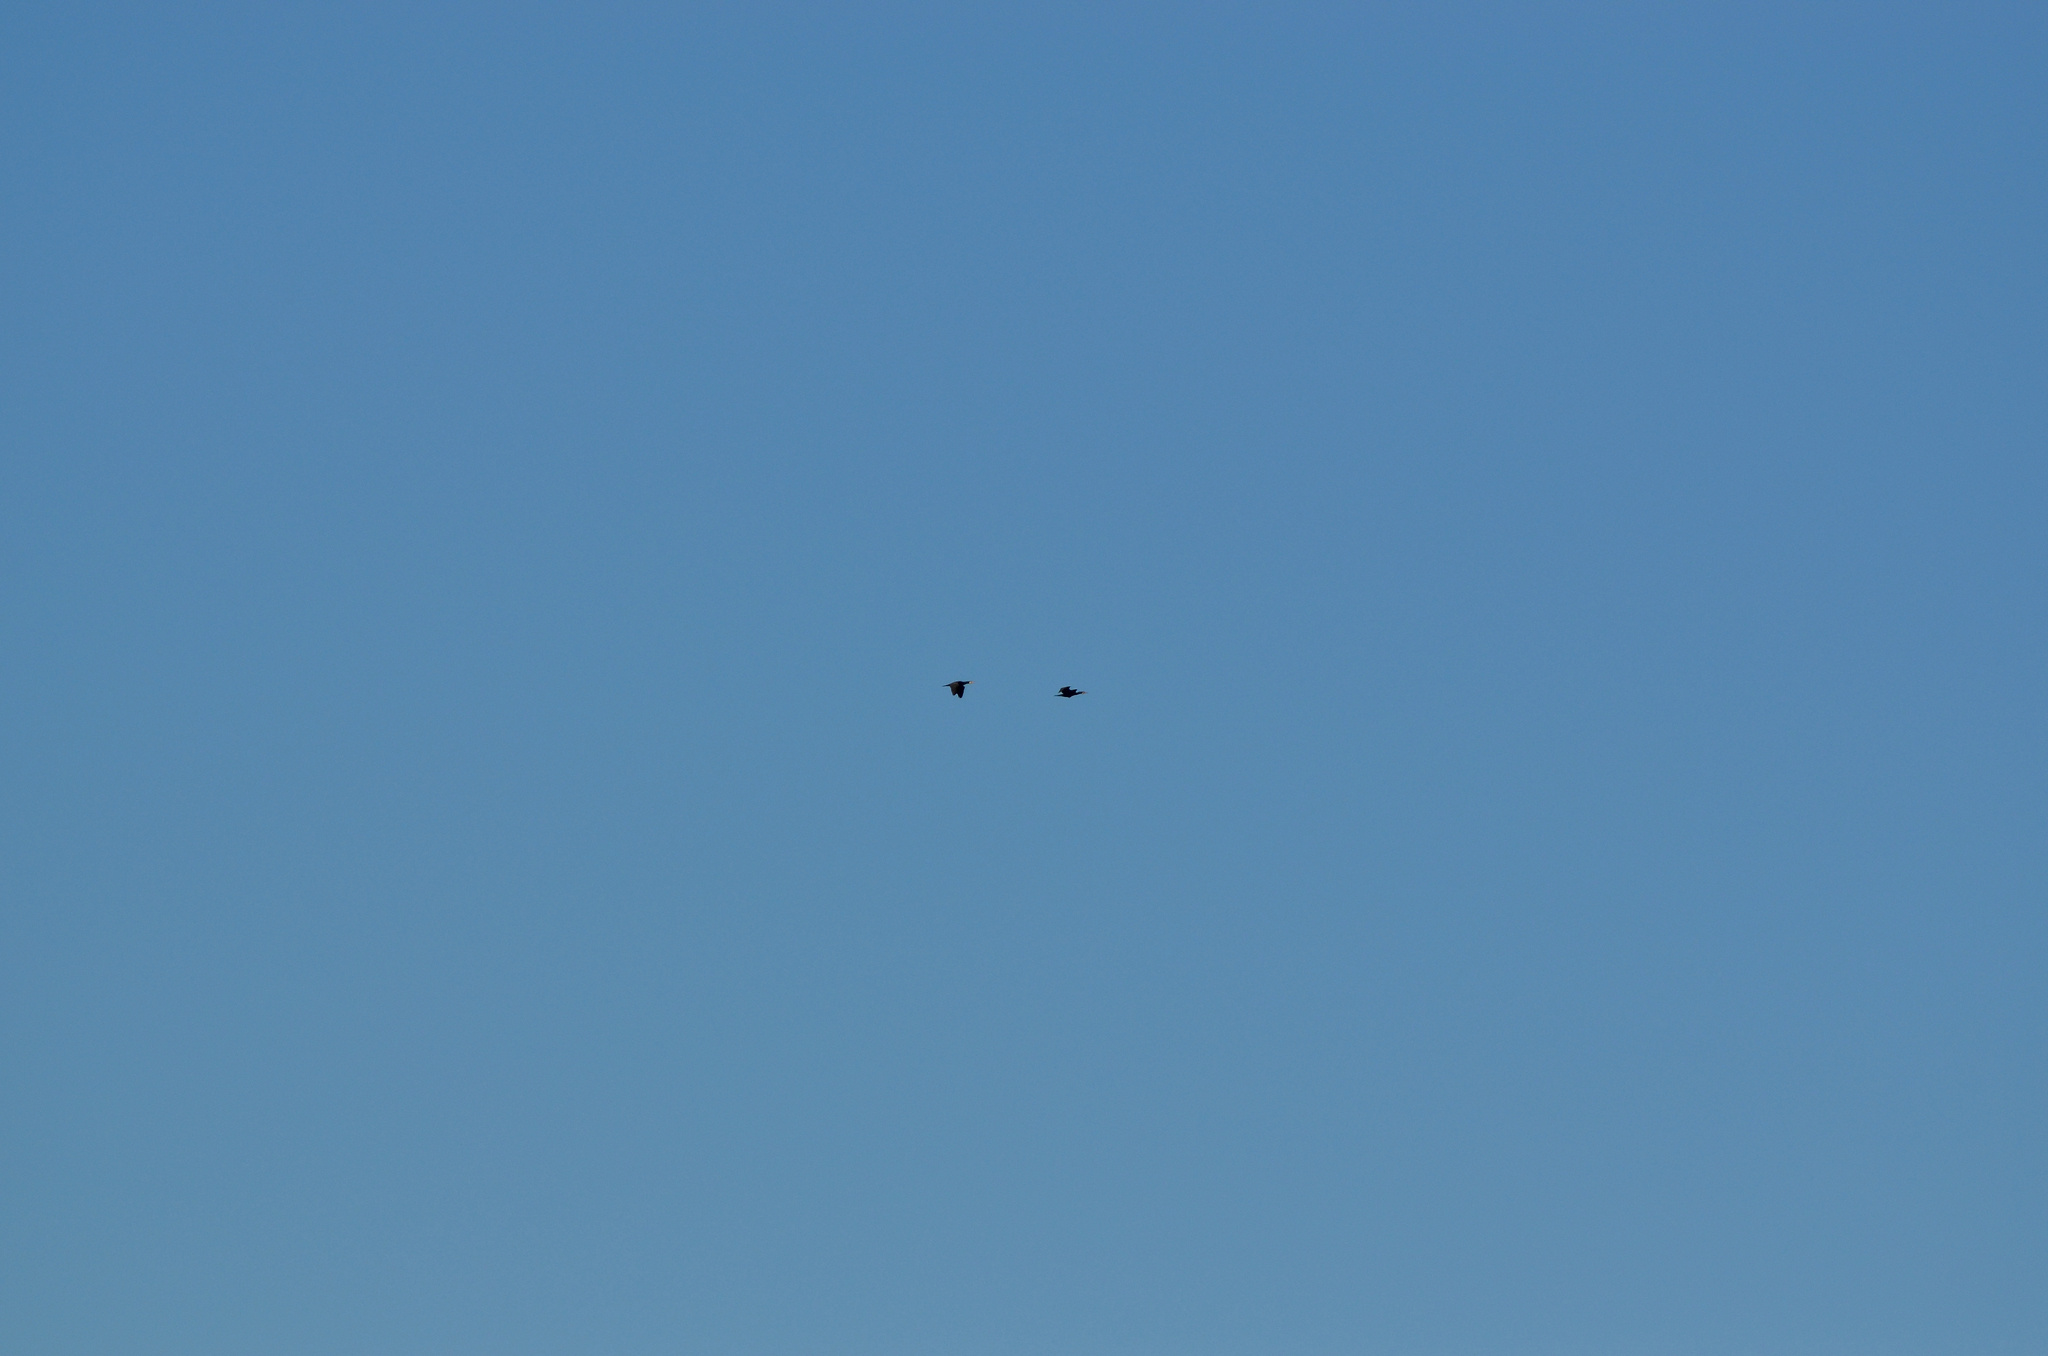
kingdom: Animalia
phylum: Chordata
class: Aves
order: Suliformes
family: Phalacrocoracidae
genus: Phalacrocorax
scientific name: Phalacrocorax carbo
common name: Great cormorant
